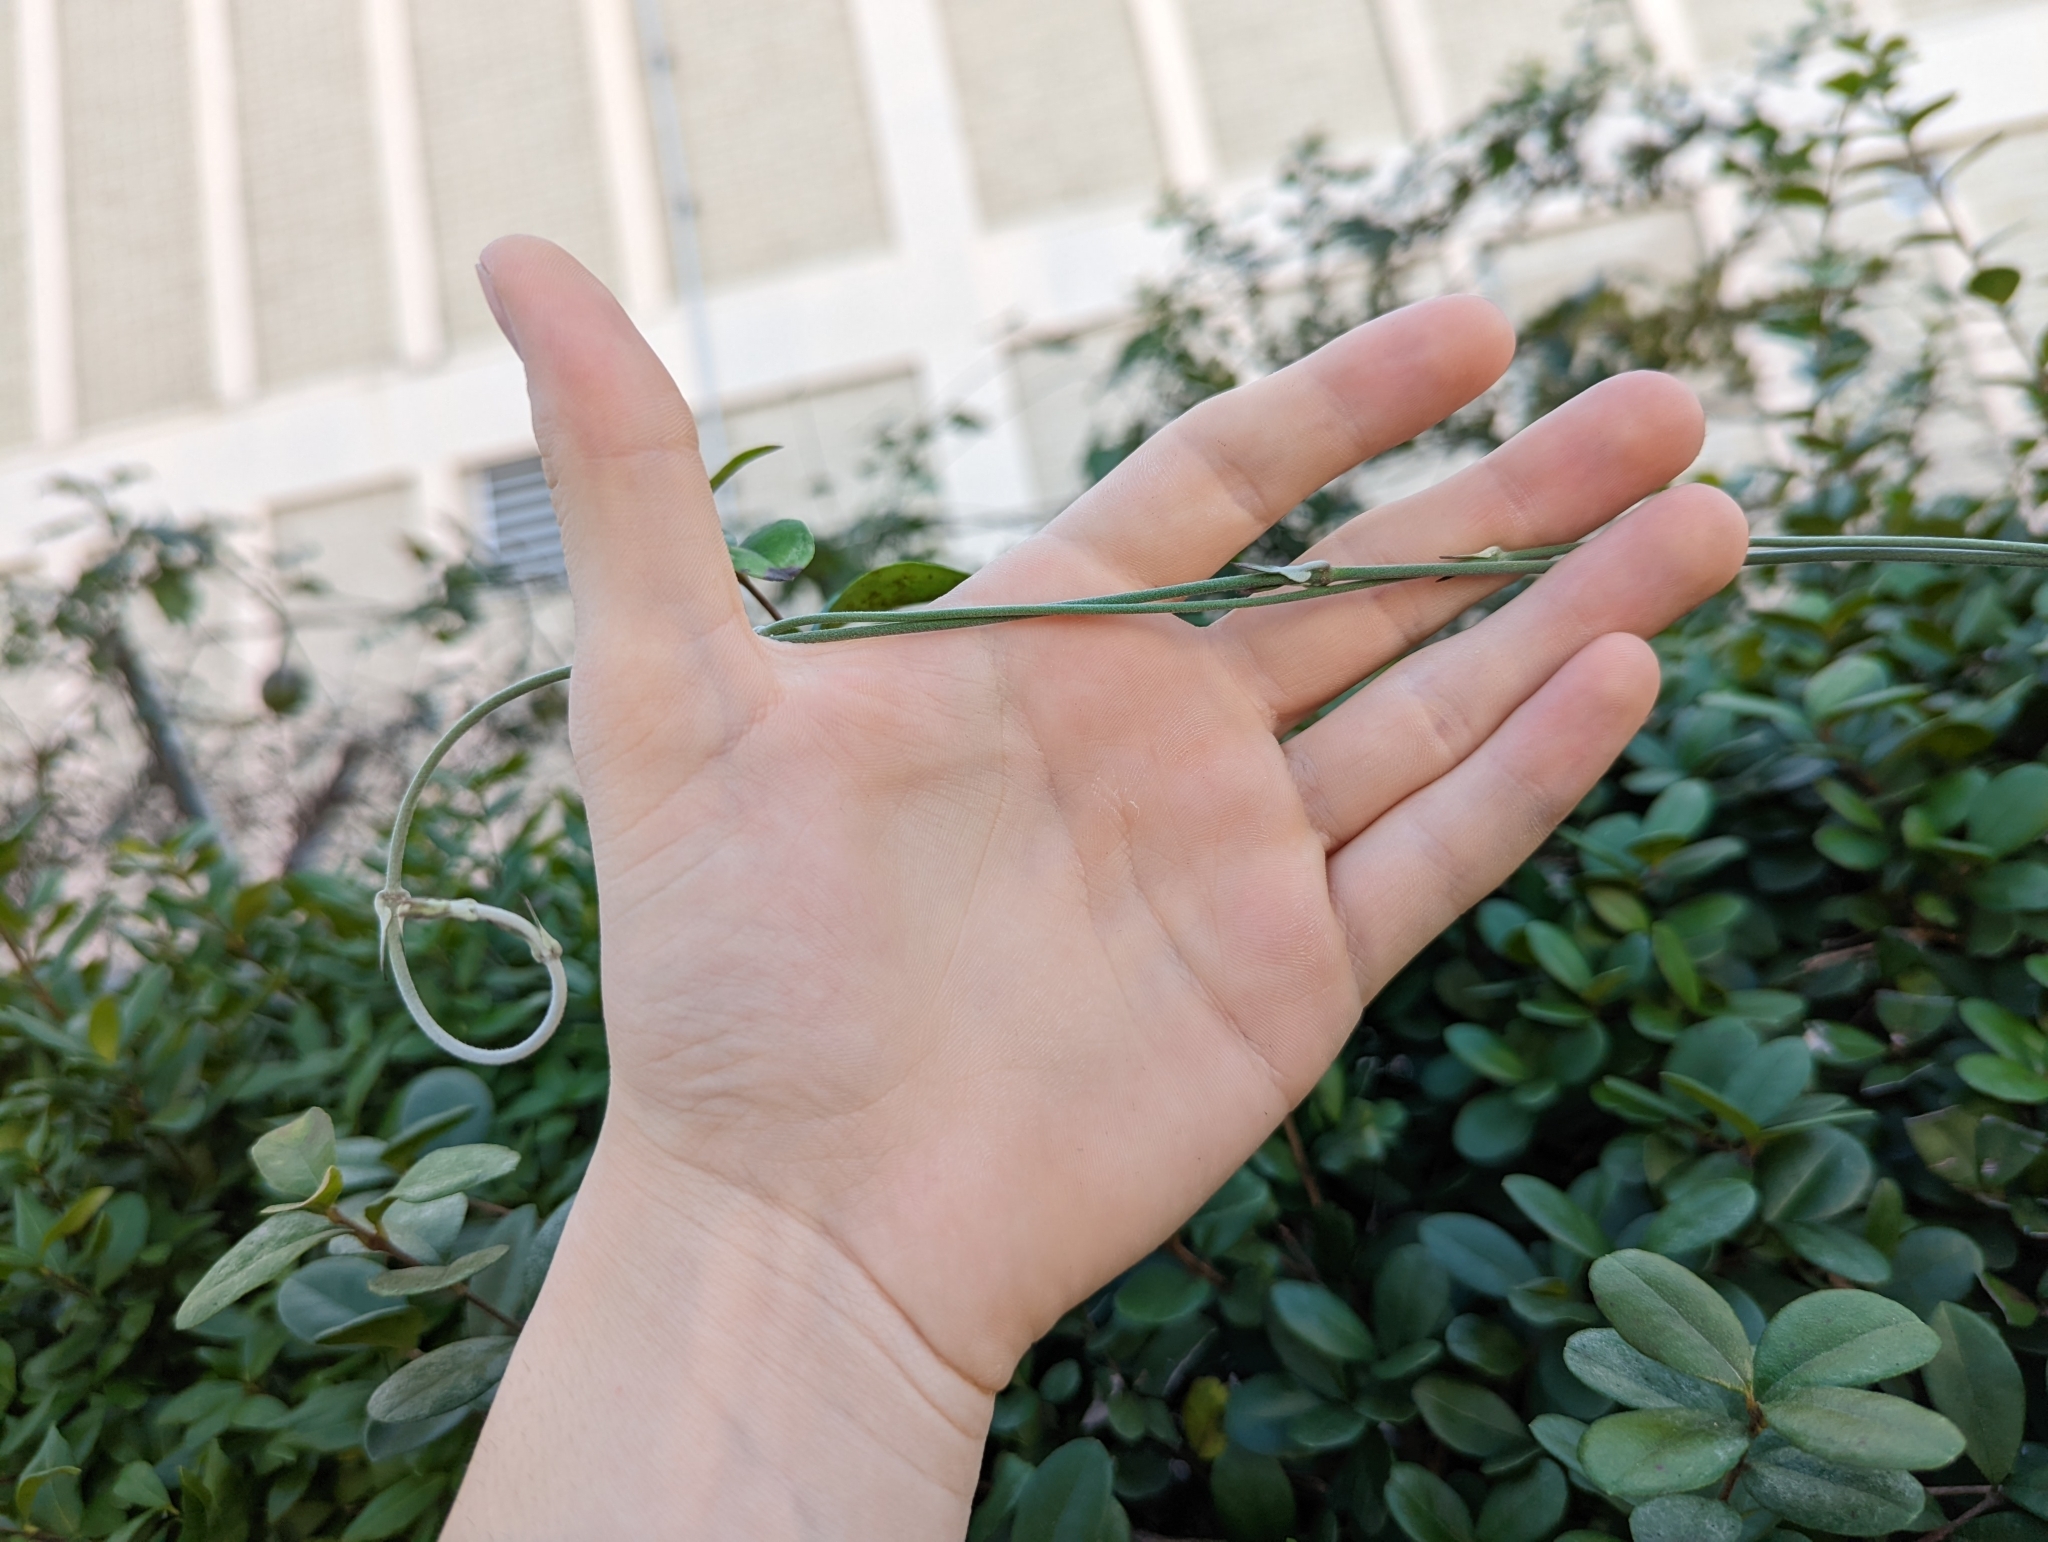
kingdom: Plantae
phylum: Tracheophyta
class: Magnoliopsida
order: Gentianales
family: Apocynaceae
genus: Araujia
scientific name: Araujia odorata
